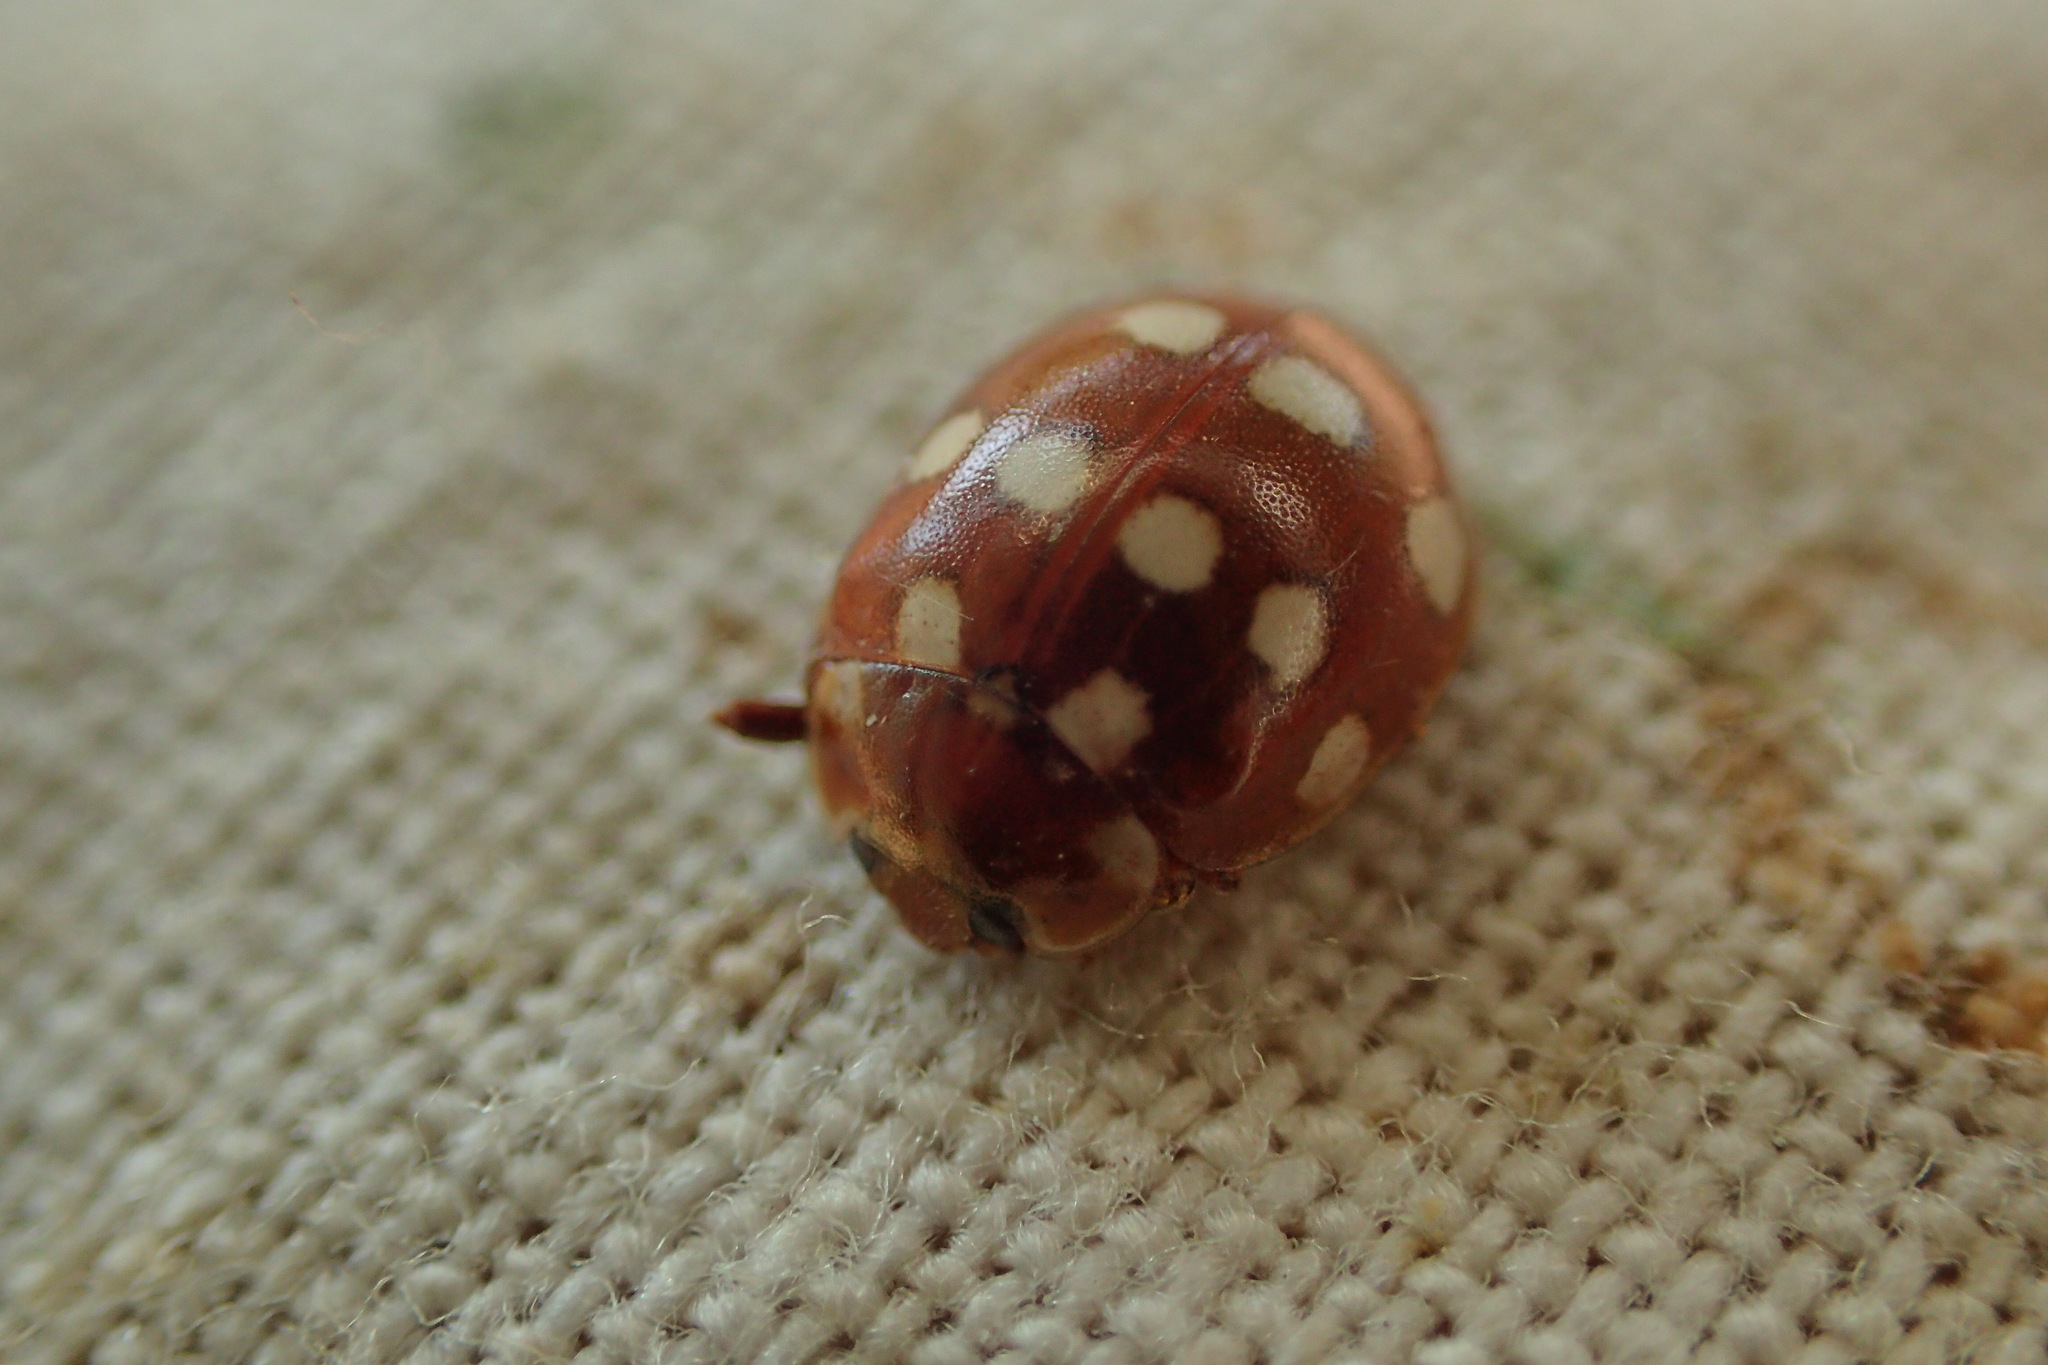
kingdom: Animalia
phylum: Arthropoda
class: Insecta
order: Coleoptera
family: Coccinellidae
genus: Calvia
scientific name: Calvia quatuordecimguttata
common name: Cream-spot ladybird
